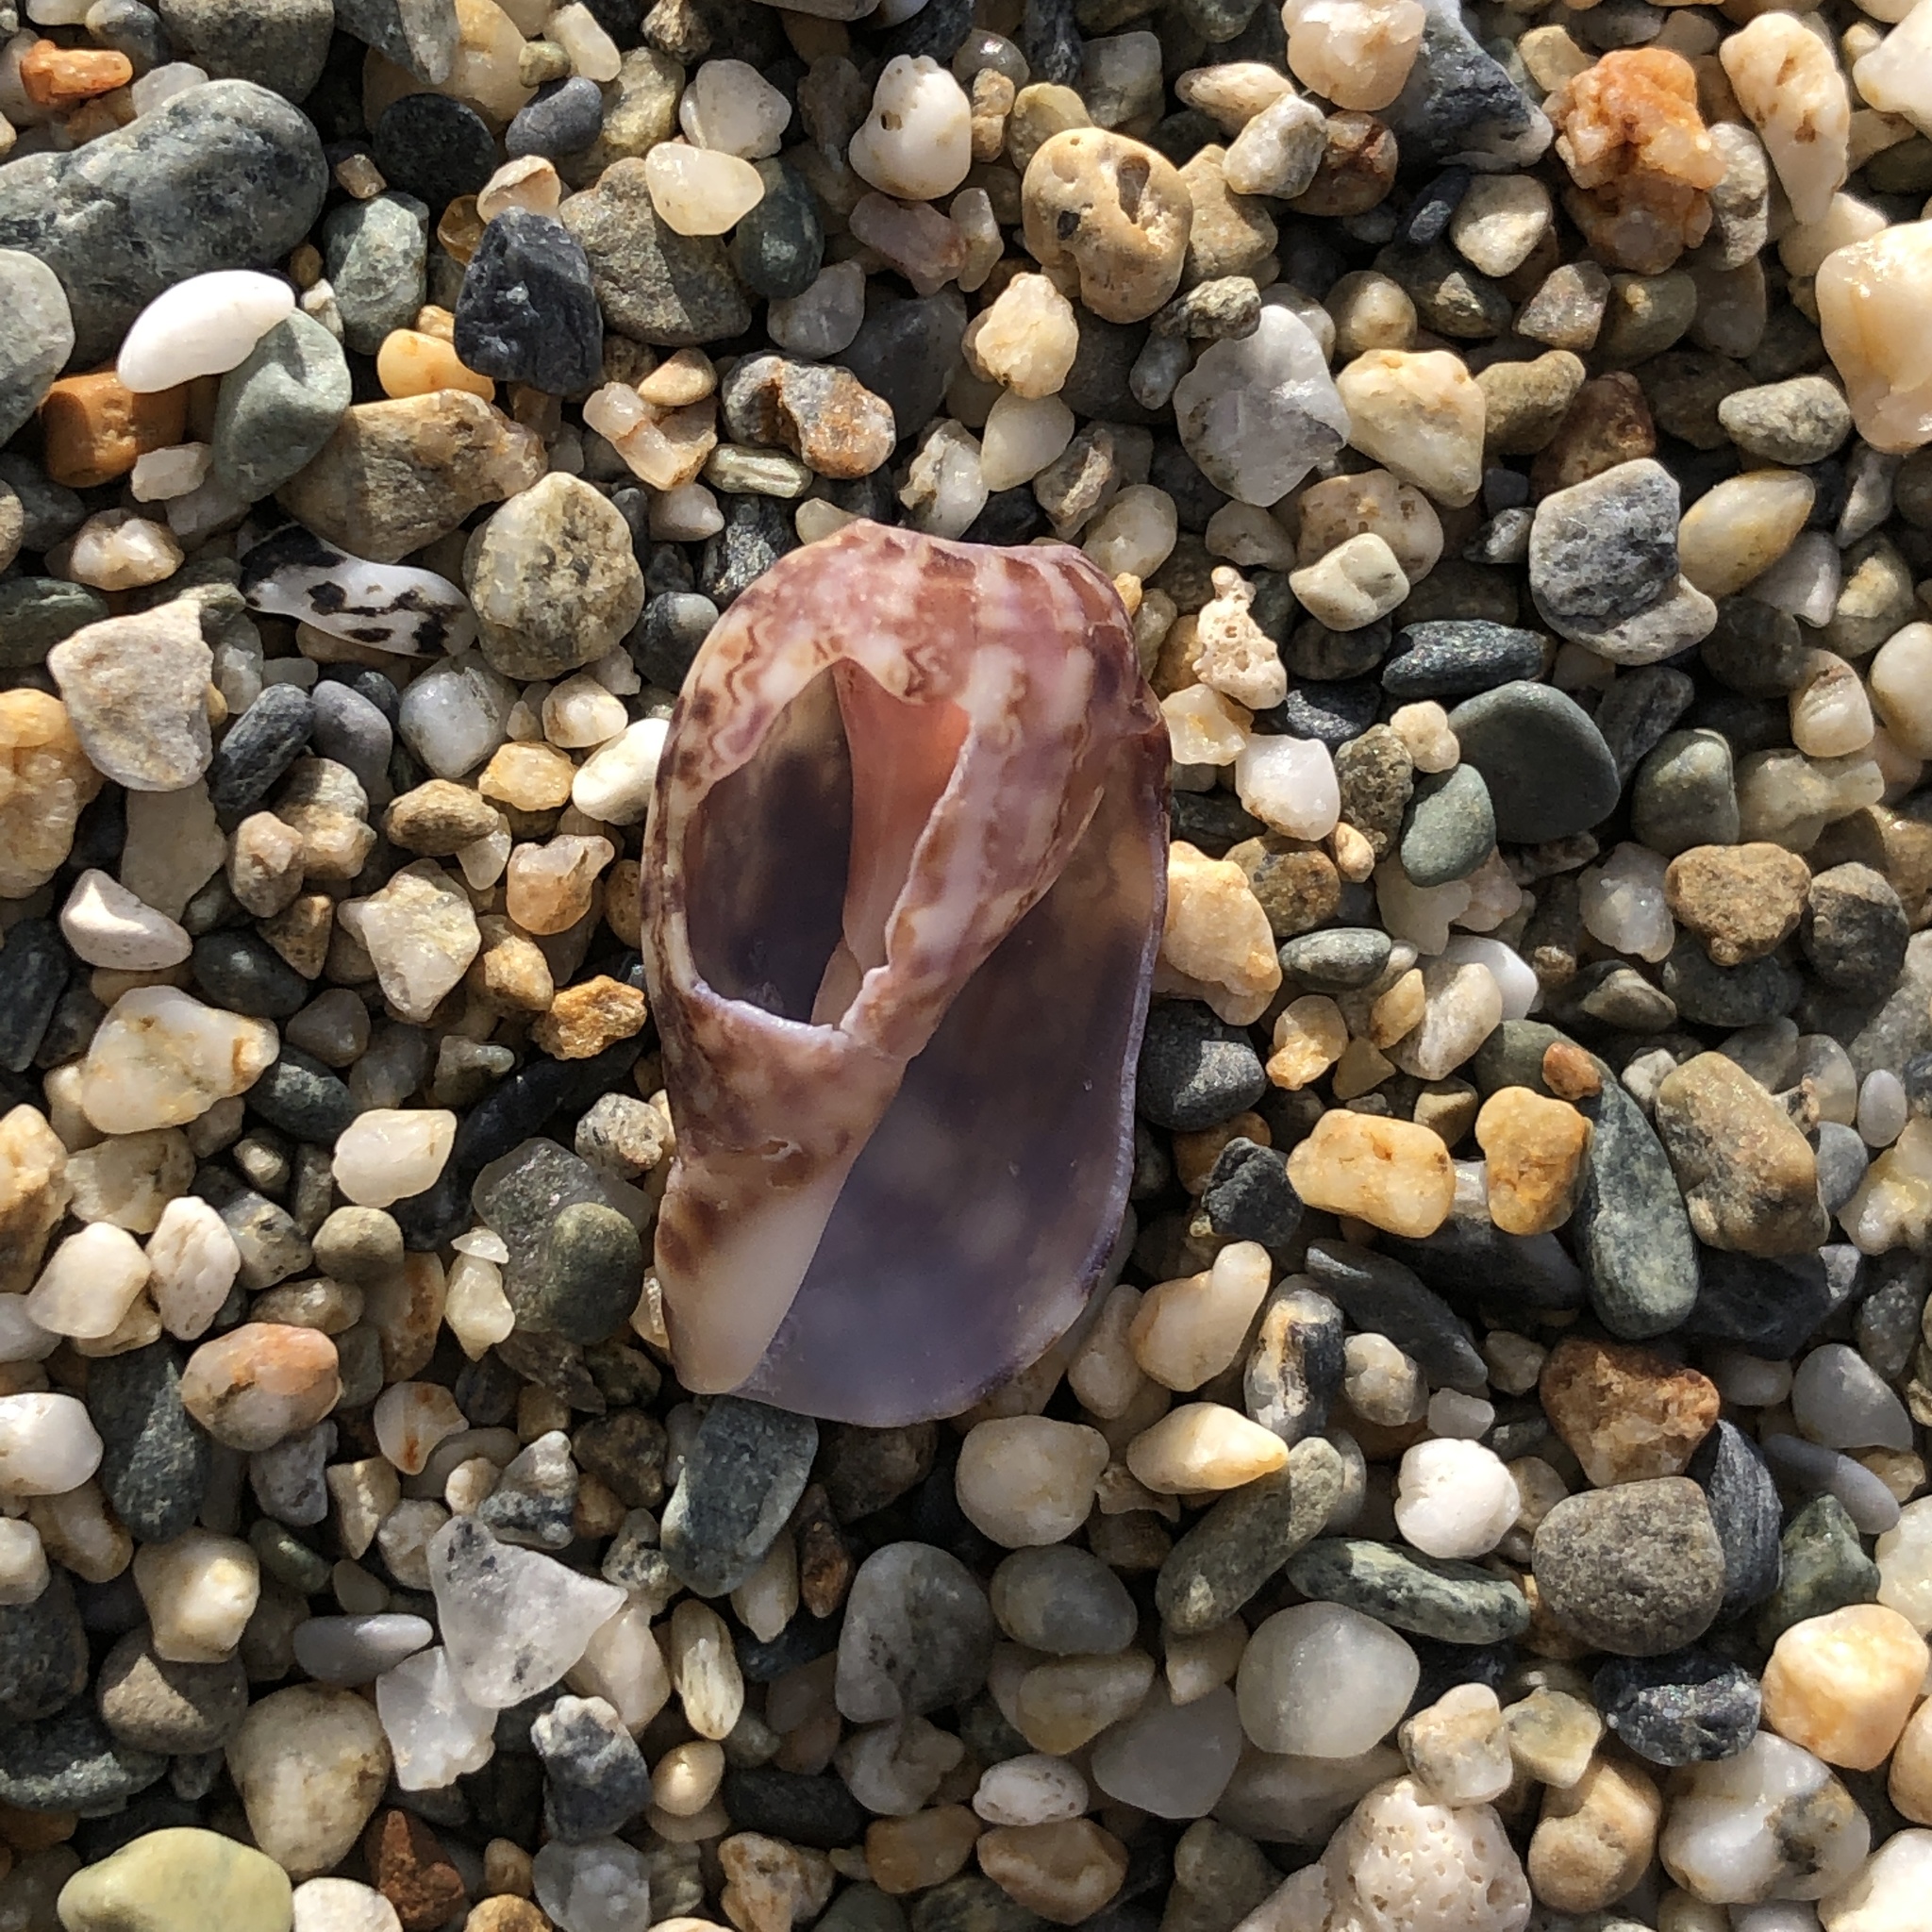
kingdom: Animalia
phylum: Mollusca
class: Gastropoda
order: Neogastropoda
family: Harpidae
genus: Harpa
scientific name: Harpa amouretta
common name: Lesser harp
